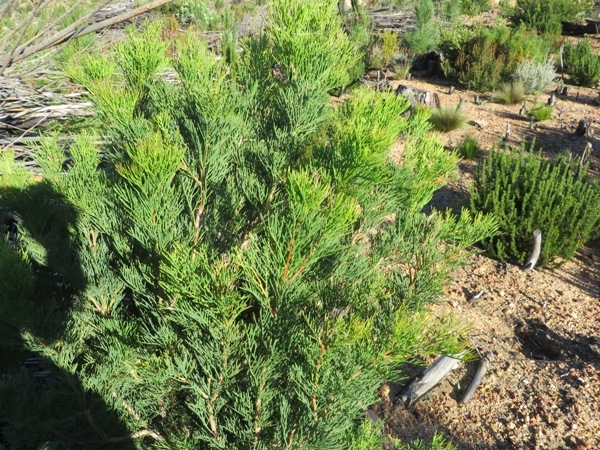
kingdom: Plantae
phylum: Tracheophyta
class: Magnoliopsida
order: Proteales
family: Proteaceae
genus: Hakea
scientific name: Hakea drupacea
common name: Sweet hakea
